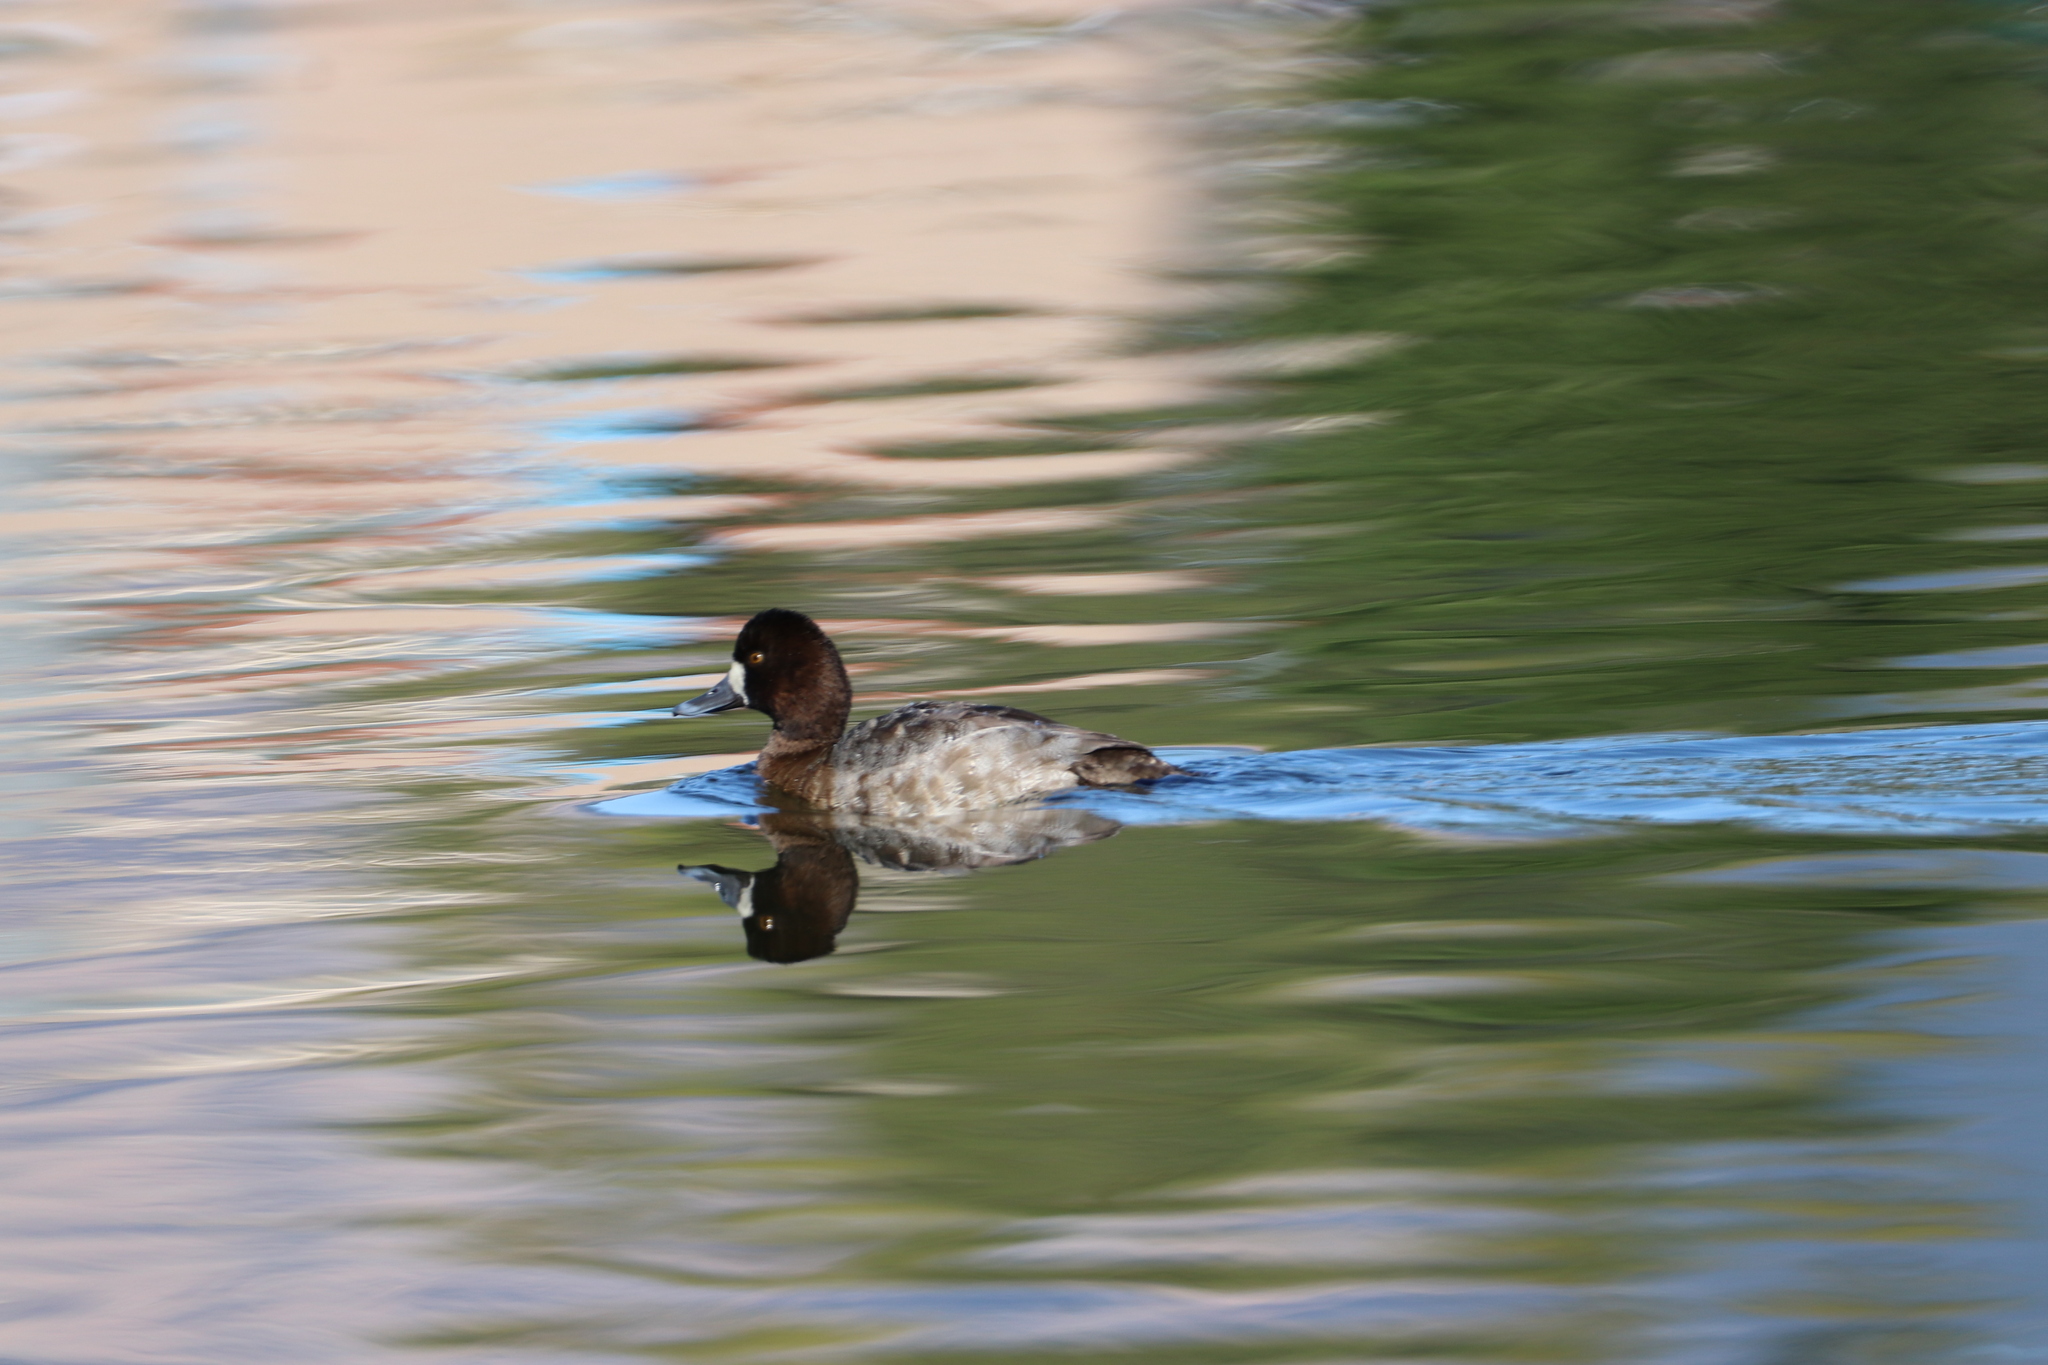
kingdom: Animalia
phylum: Chordata
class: Aves
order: Anseriformes
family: Anatidae
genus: Aythya
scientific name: Aythya affinis
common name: Lesser scaup
